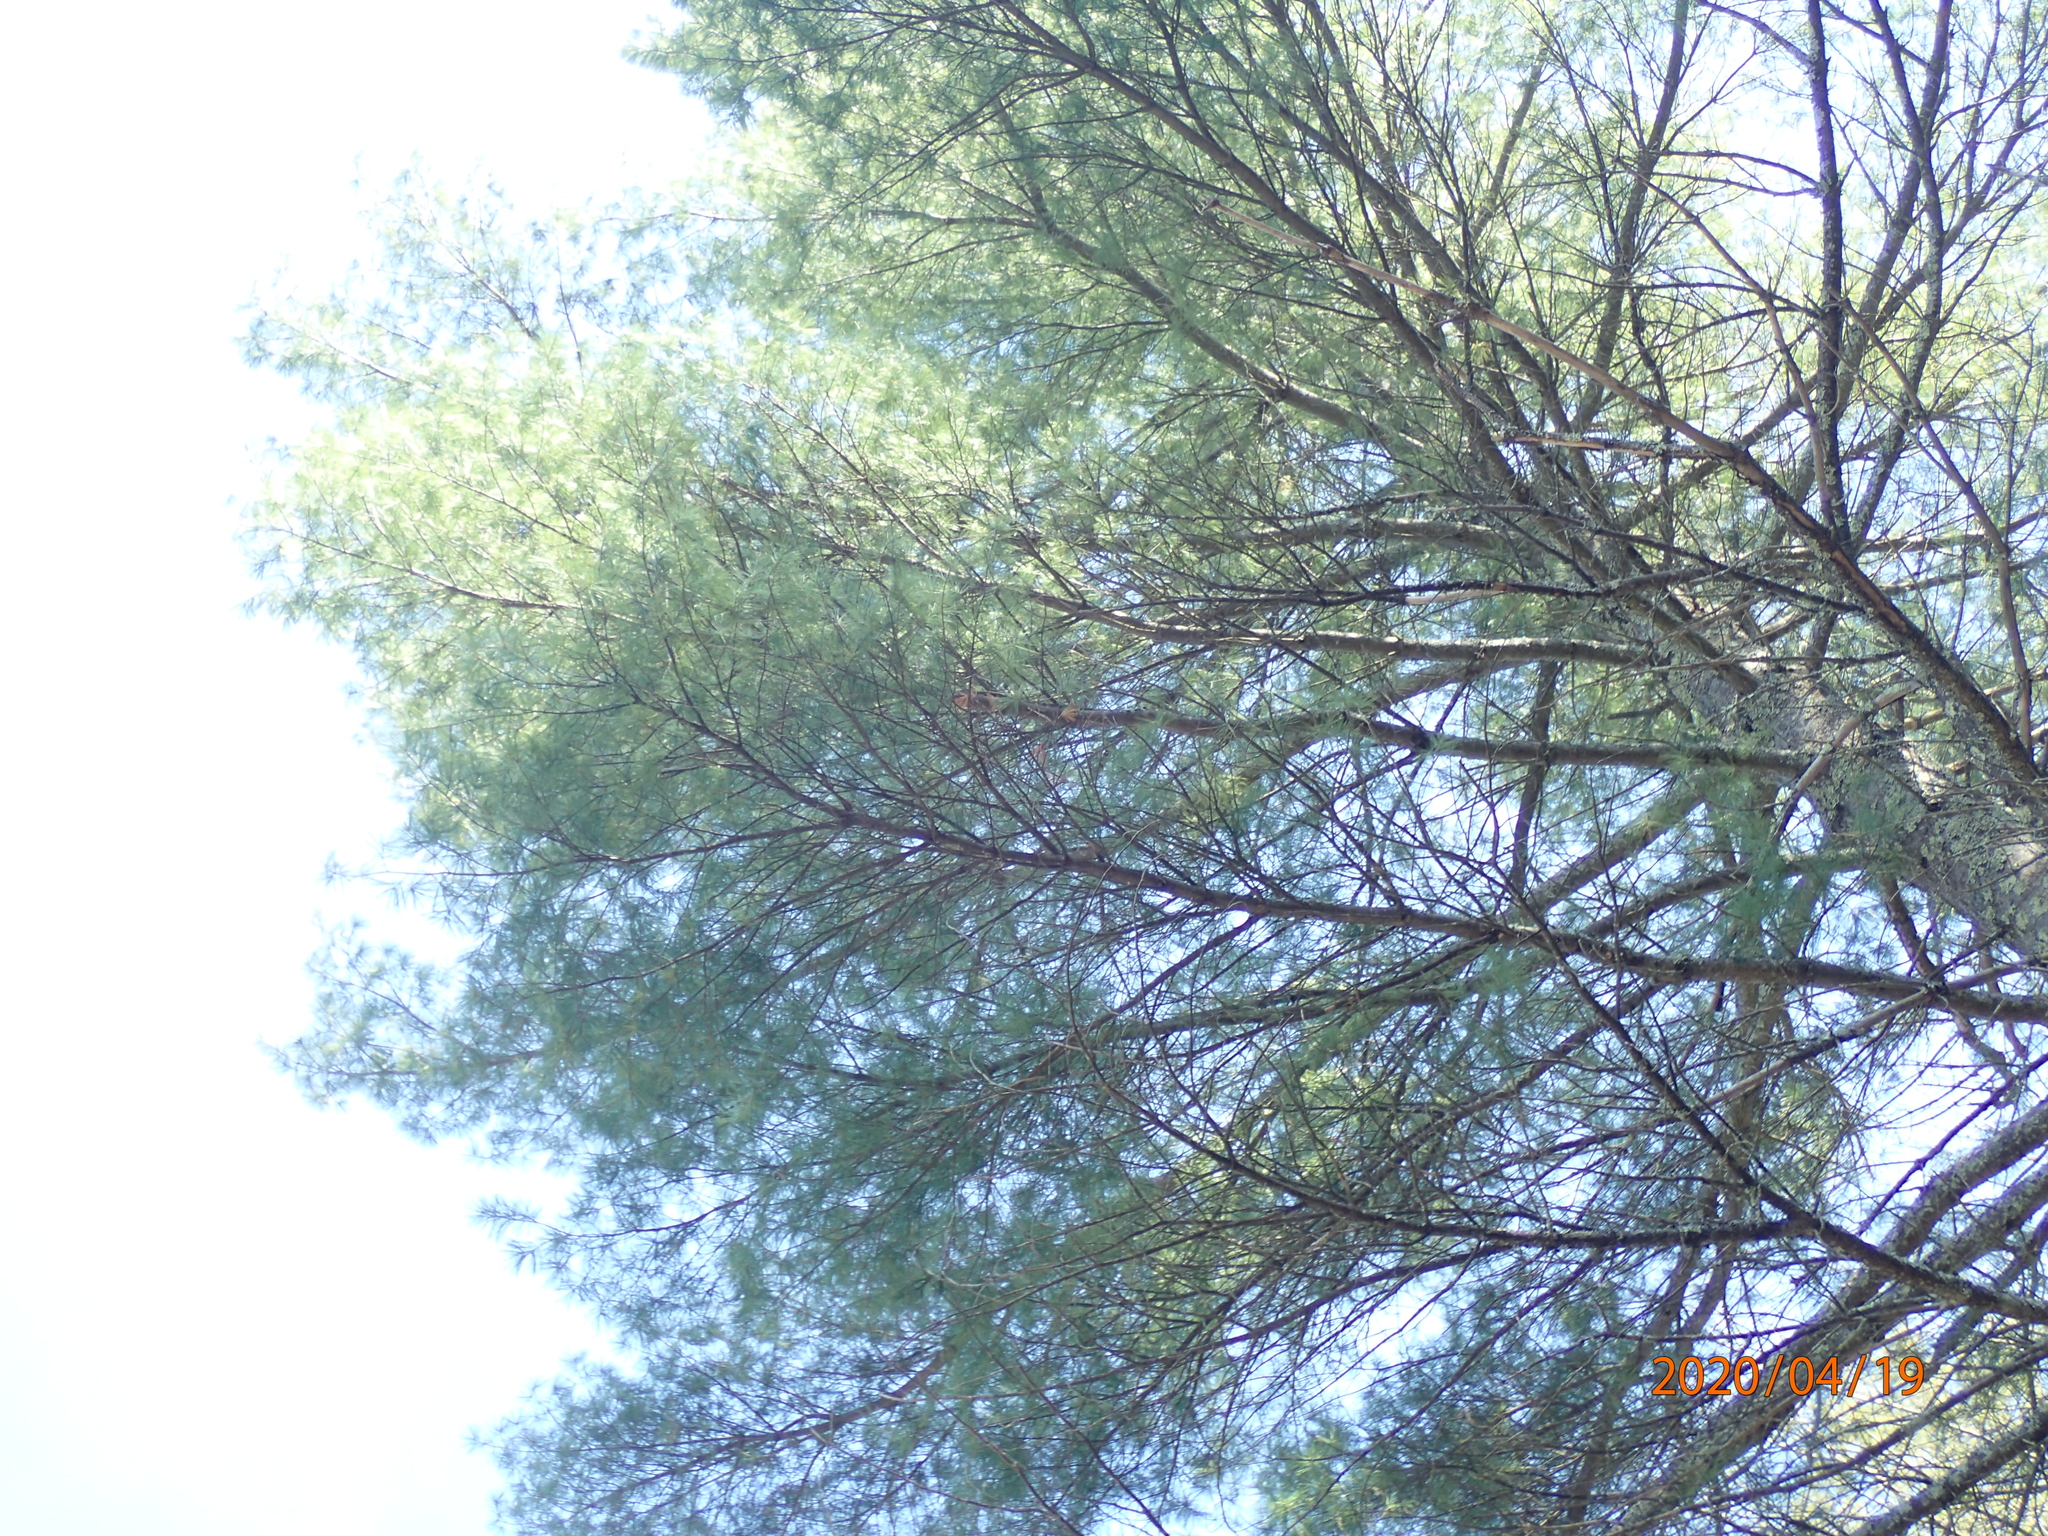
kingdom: Plantae
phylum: Tracheophyta
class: Pinopsida
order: Pinales
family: Pinaceae
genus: Pinus
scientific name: Pinus strobus
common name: Weymouth pine
